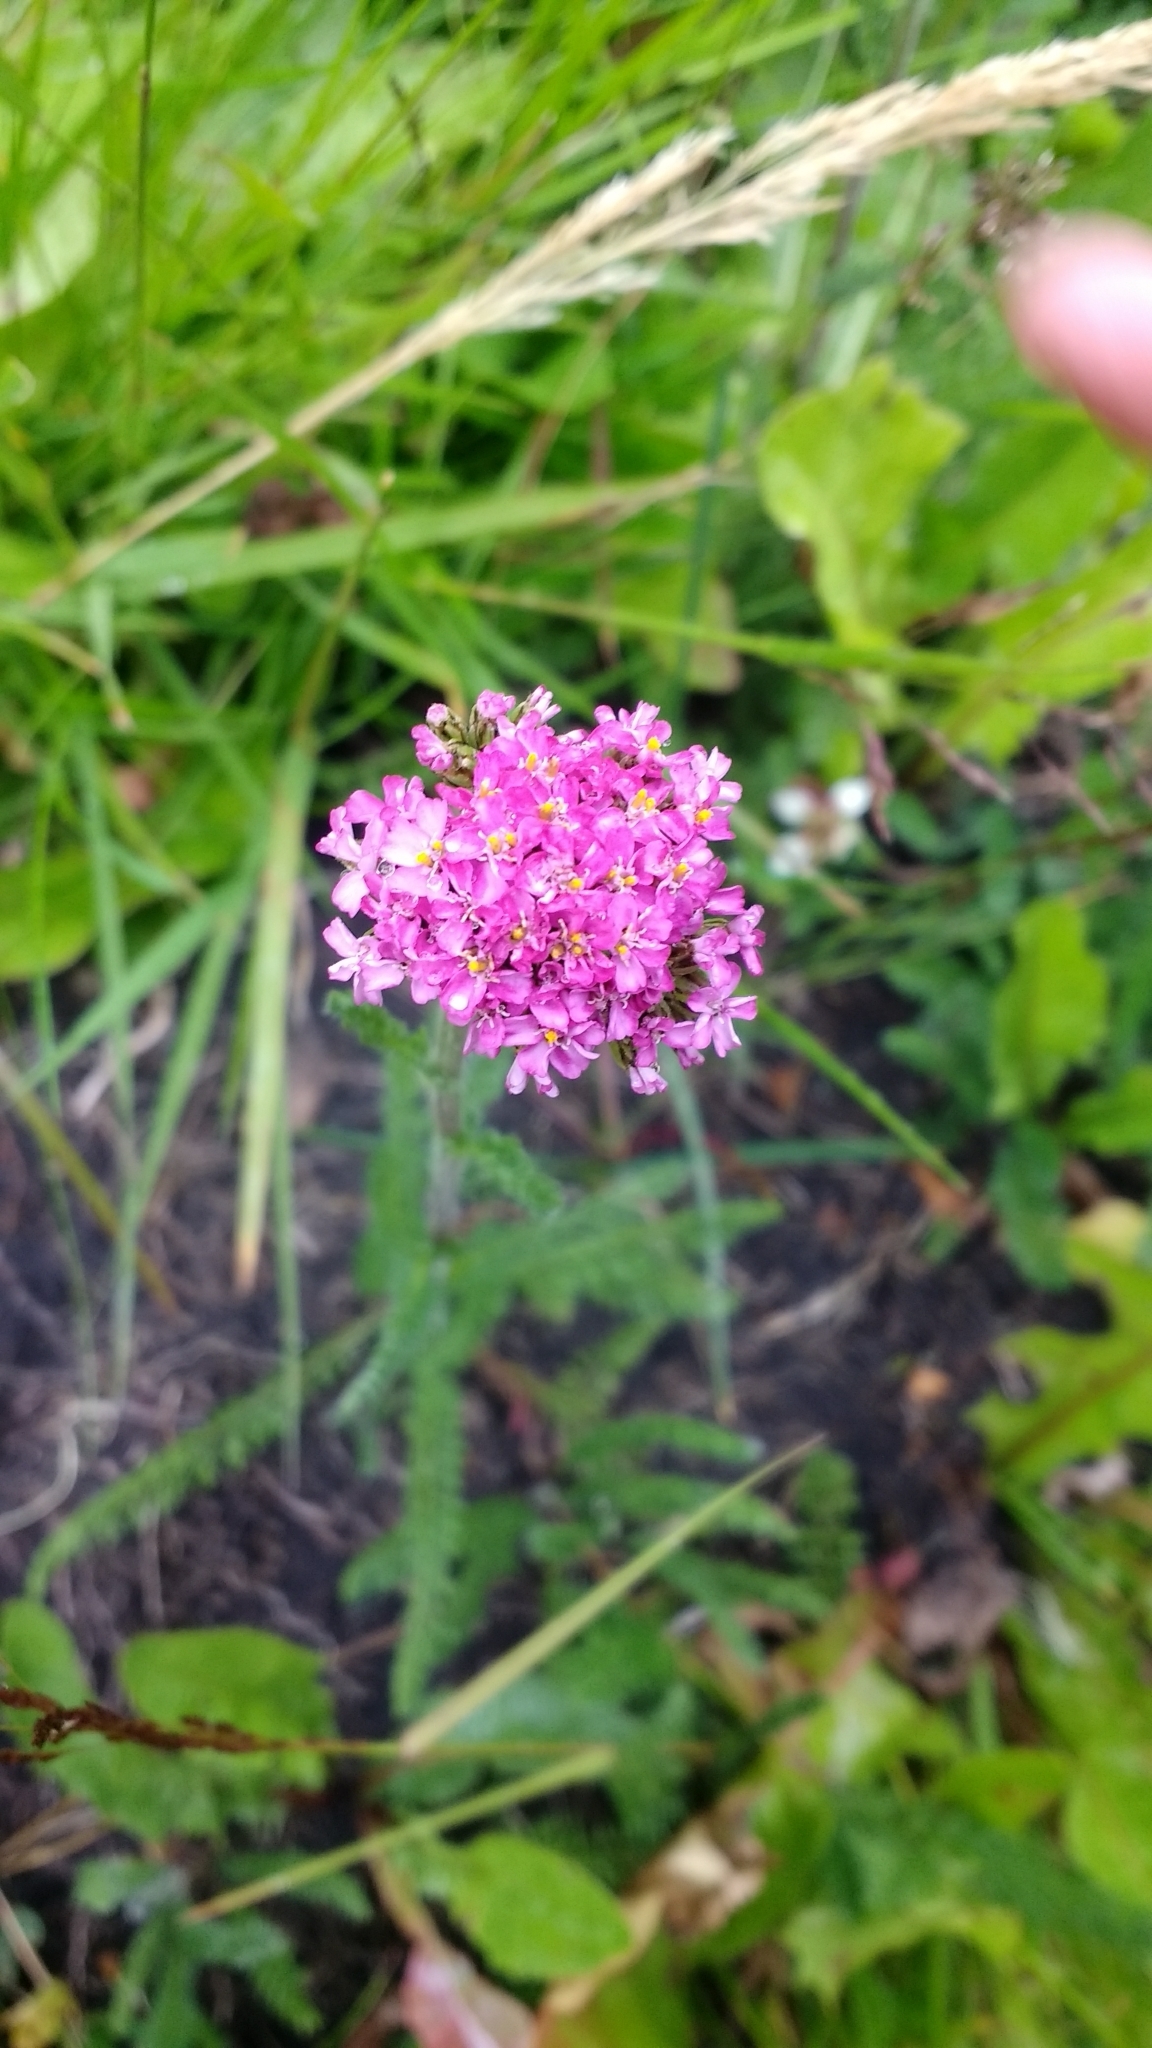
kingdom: Plantae
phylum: Tracheophyta
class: Magnoliopsida
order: Asterales
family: Asteraceae
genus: Achillea
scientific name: Achillea millefolium
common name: Yarrow
